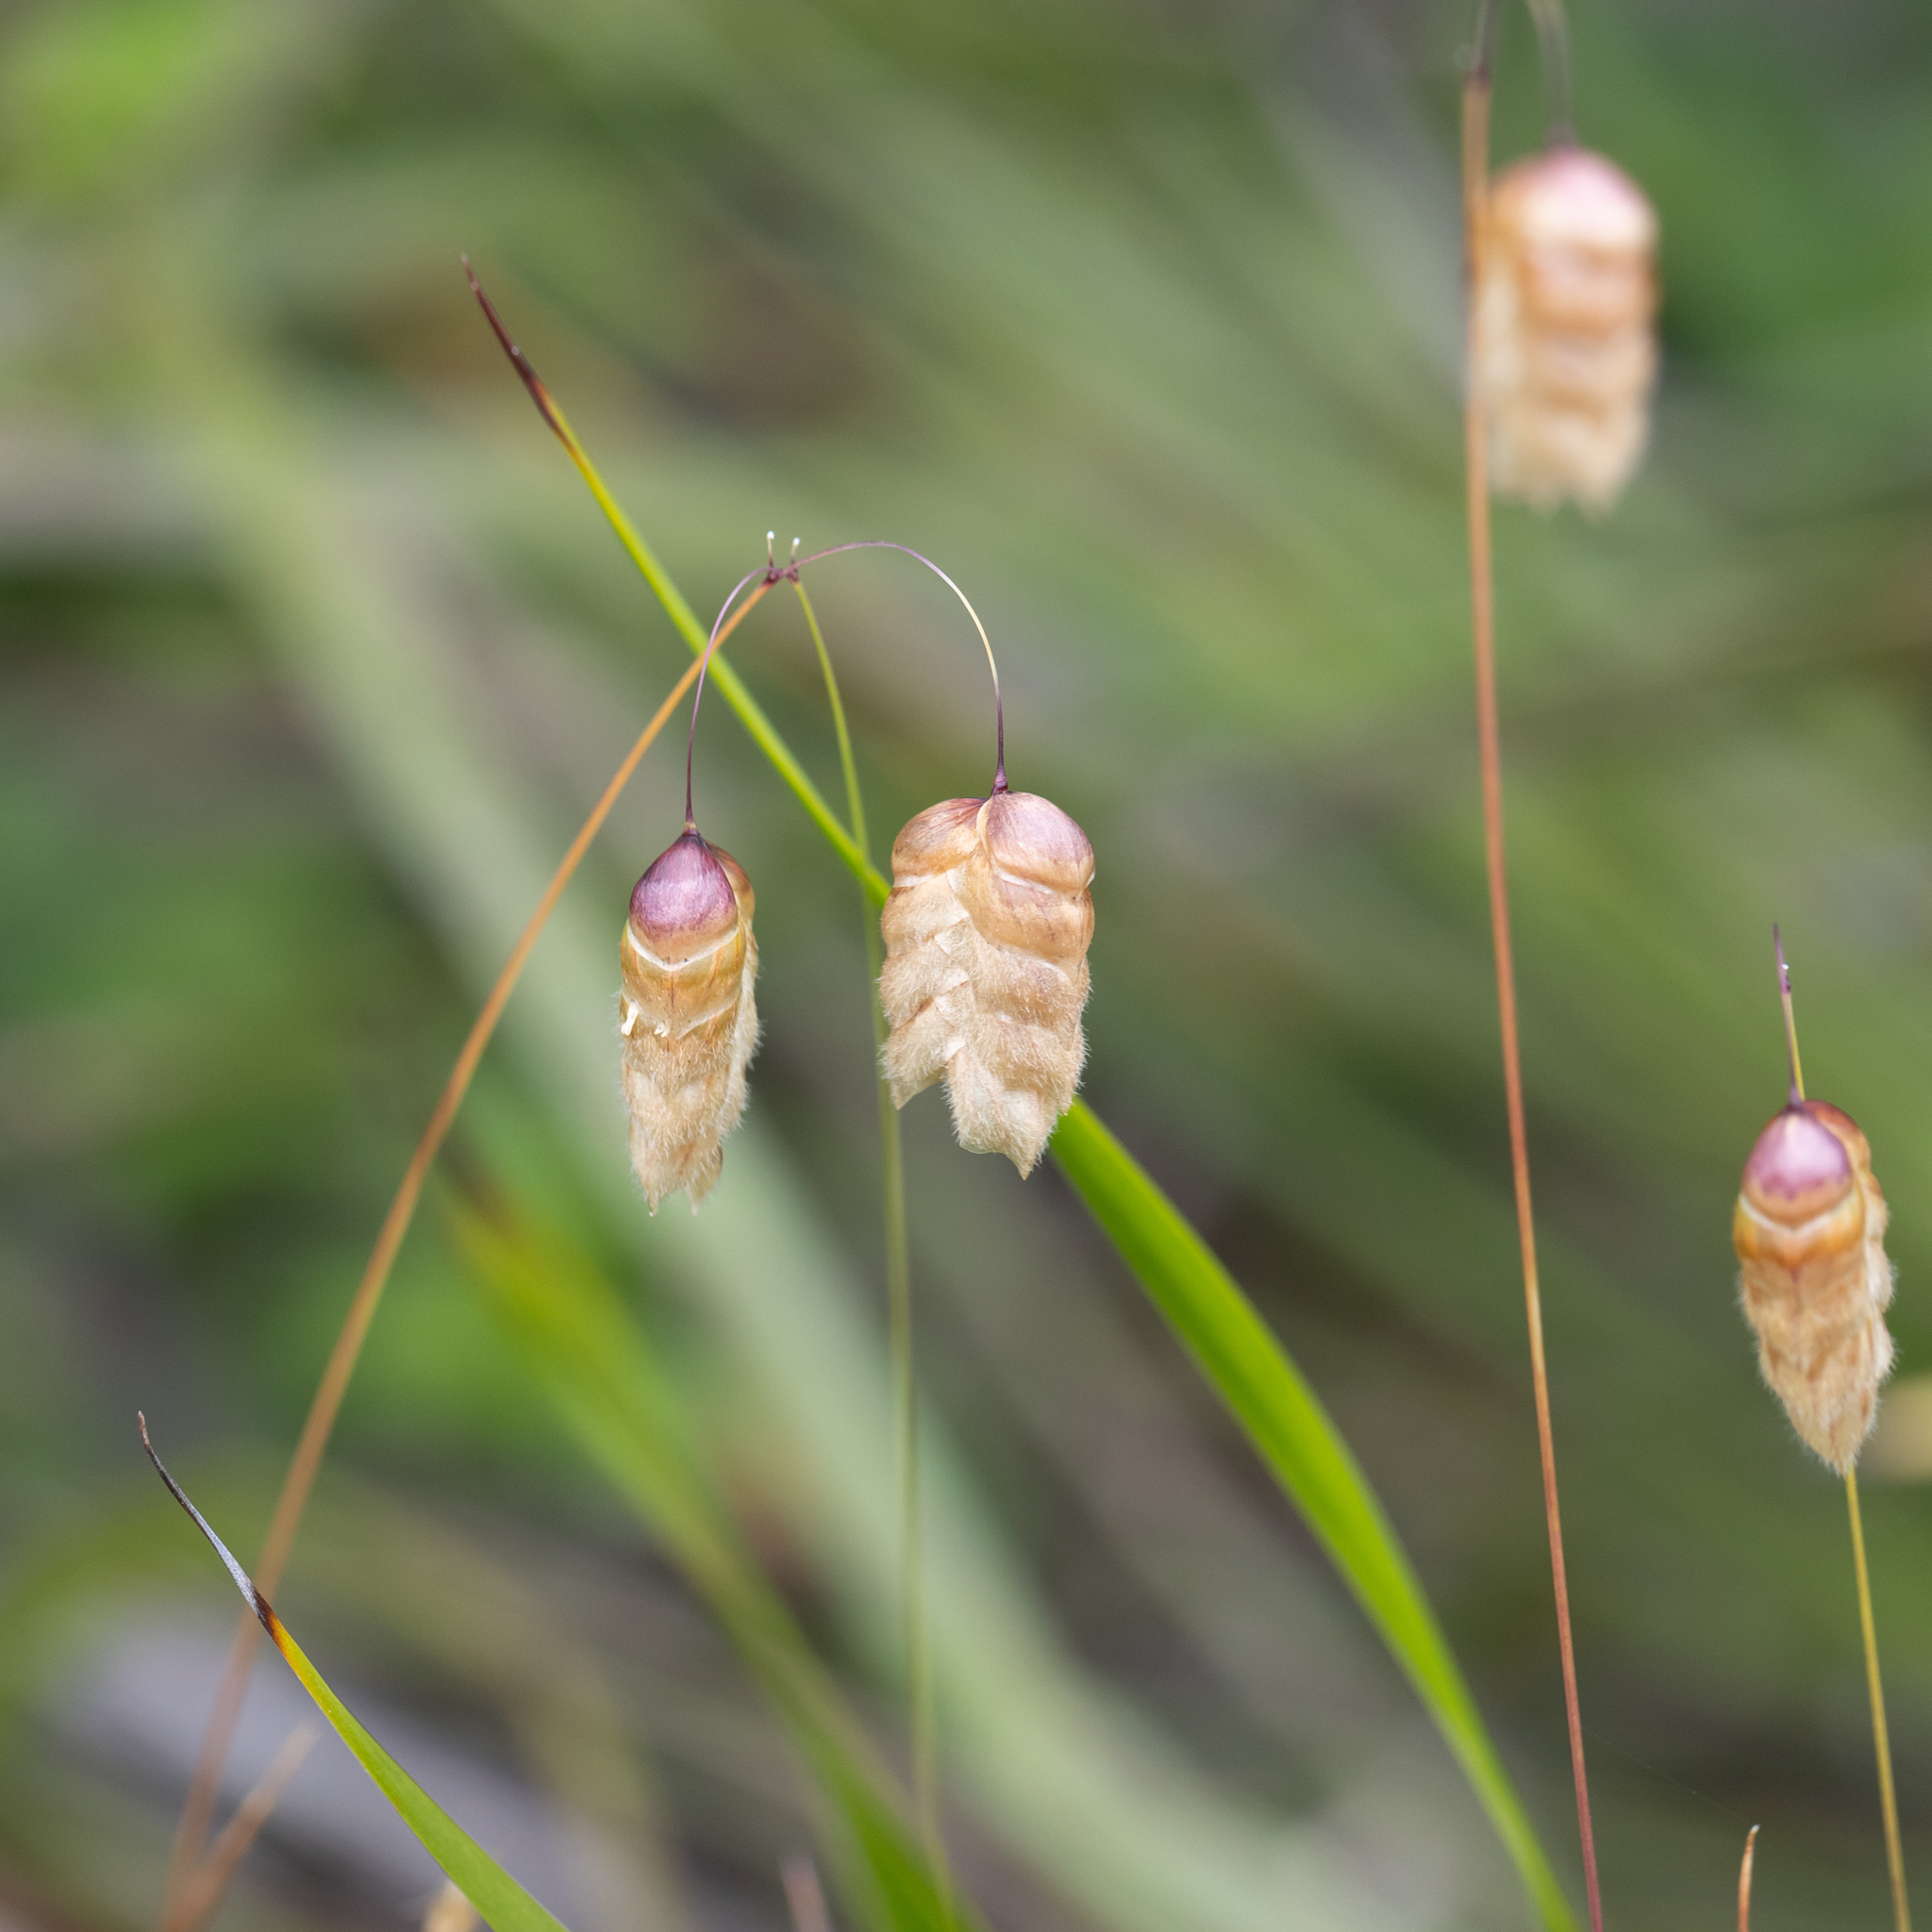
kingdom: Plantae
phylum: Tracheophyta
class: Liliopsida
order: Poales
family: Poaceae
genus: Briza
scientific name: Briza maxima
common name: Big quakinggrass
